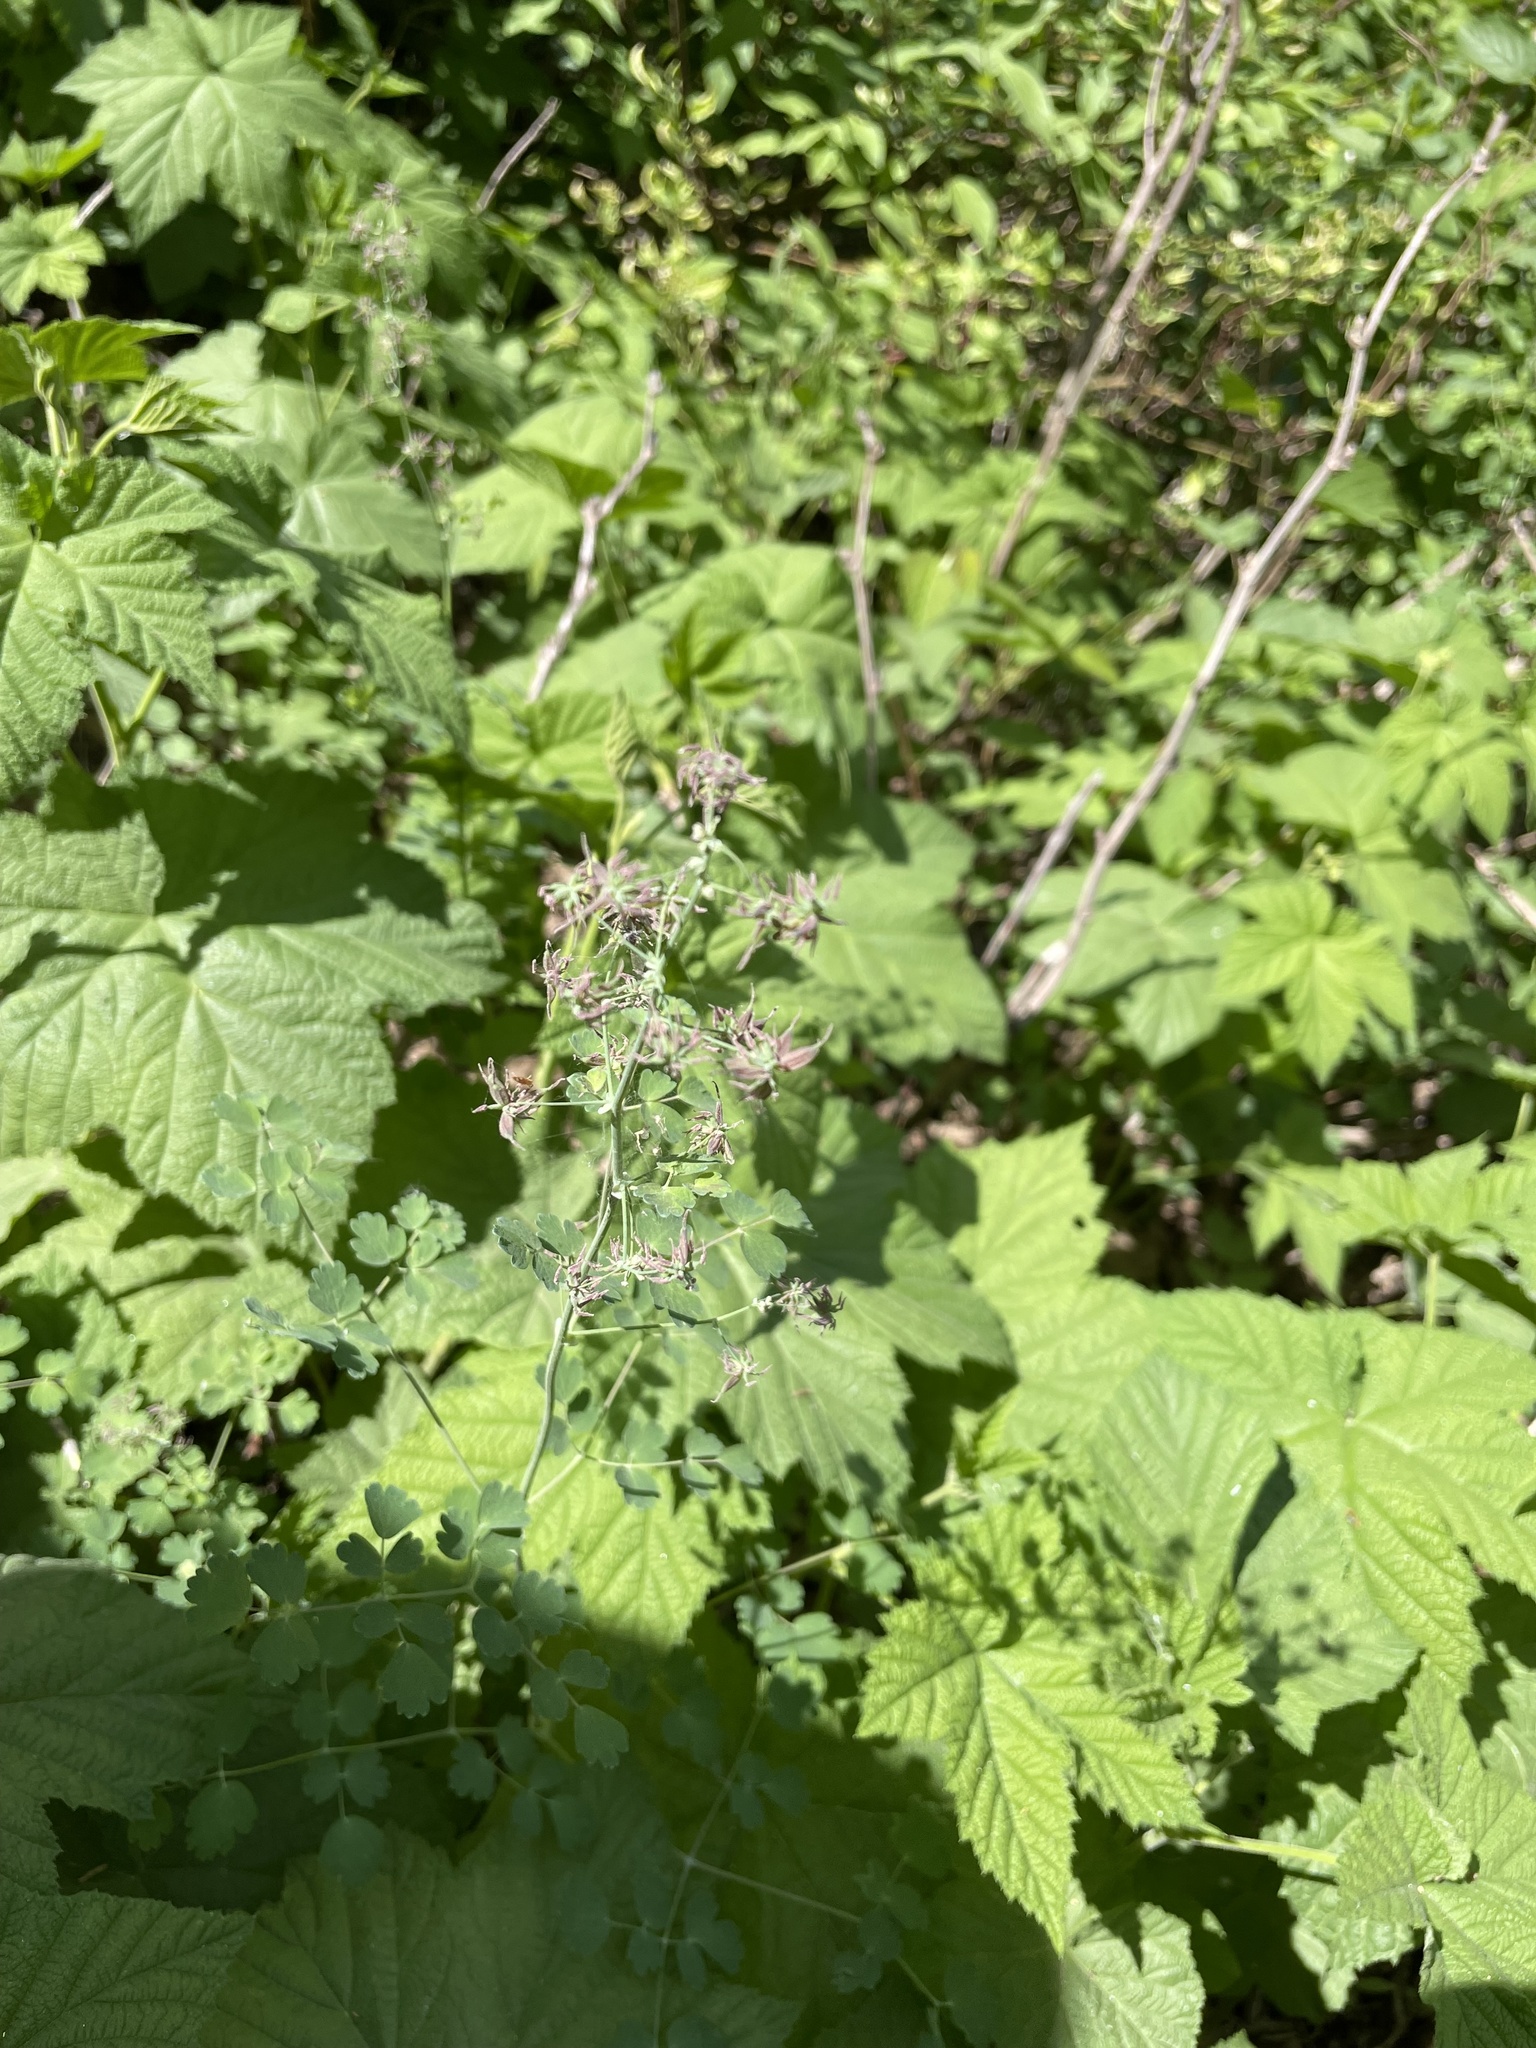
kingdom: Plantae
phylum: Tracheophyta
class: Magnoliopsida
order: Rosales
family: Rosaceae
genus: Rubus
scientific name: Rubus parviflorus
